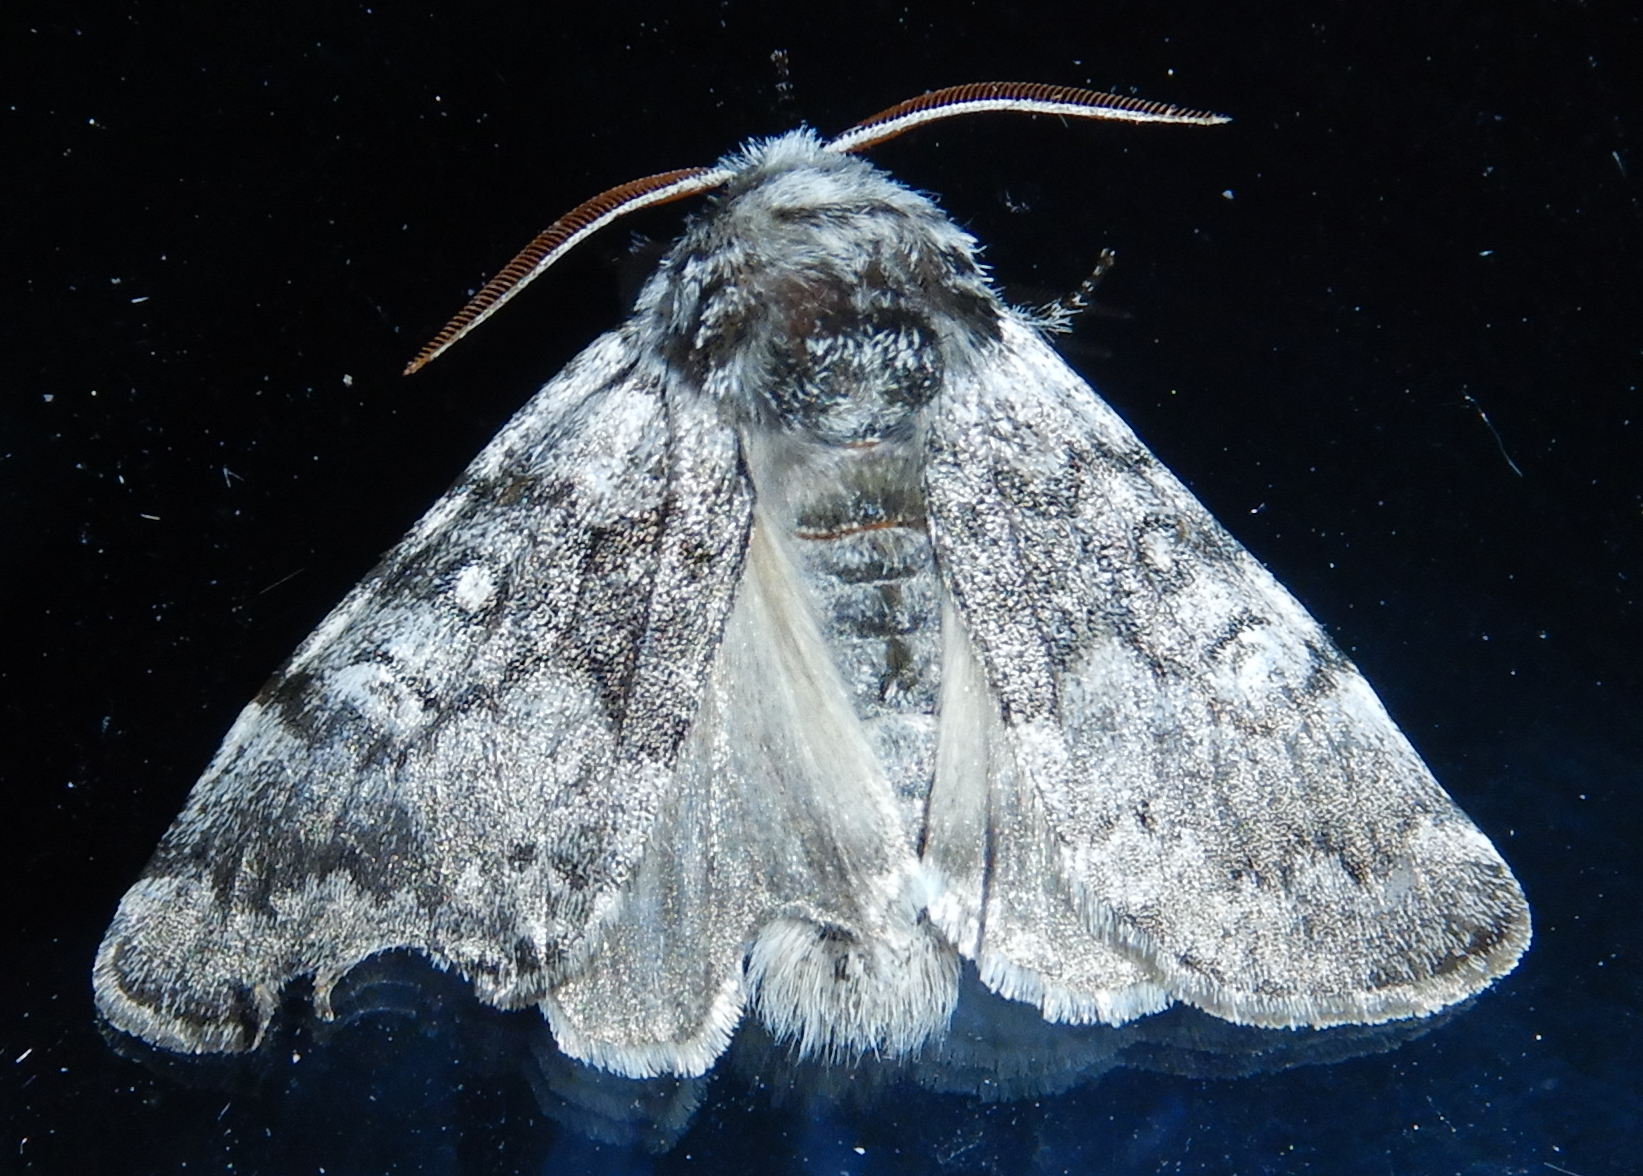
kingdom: Animalia
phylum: Arthropoda
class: Insecta
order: Lepidoptera
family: Noctuidae
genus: Colocasia
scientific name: Colocasia propinquilinea
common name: Close-banded demas
